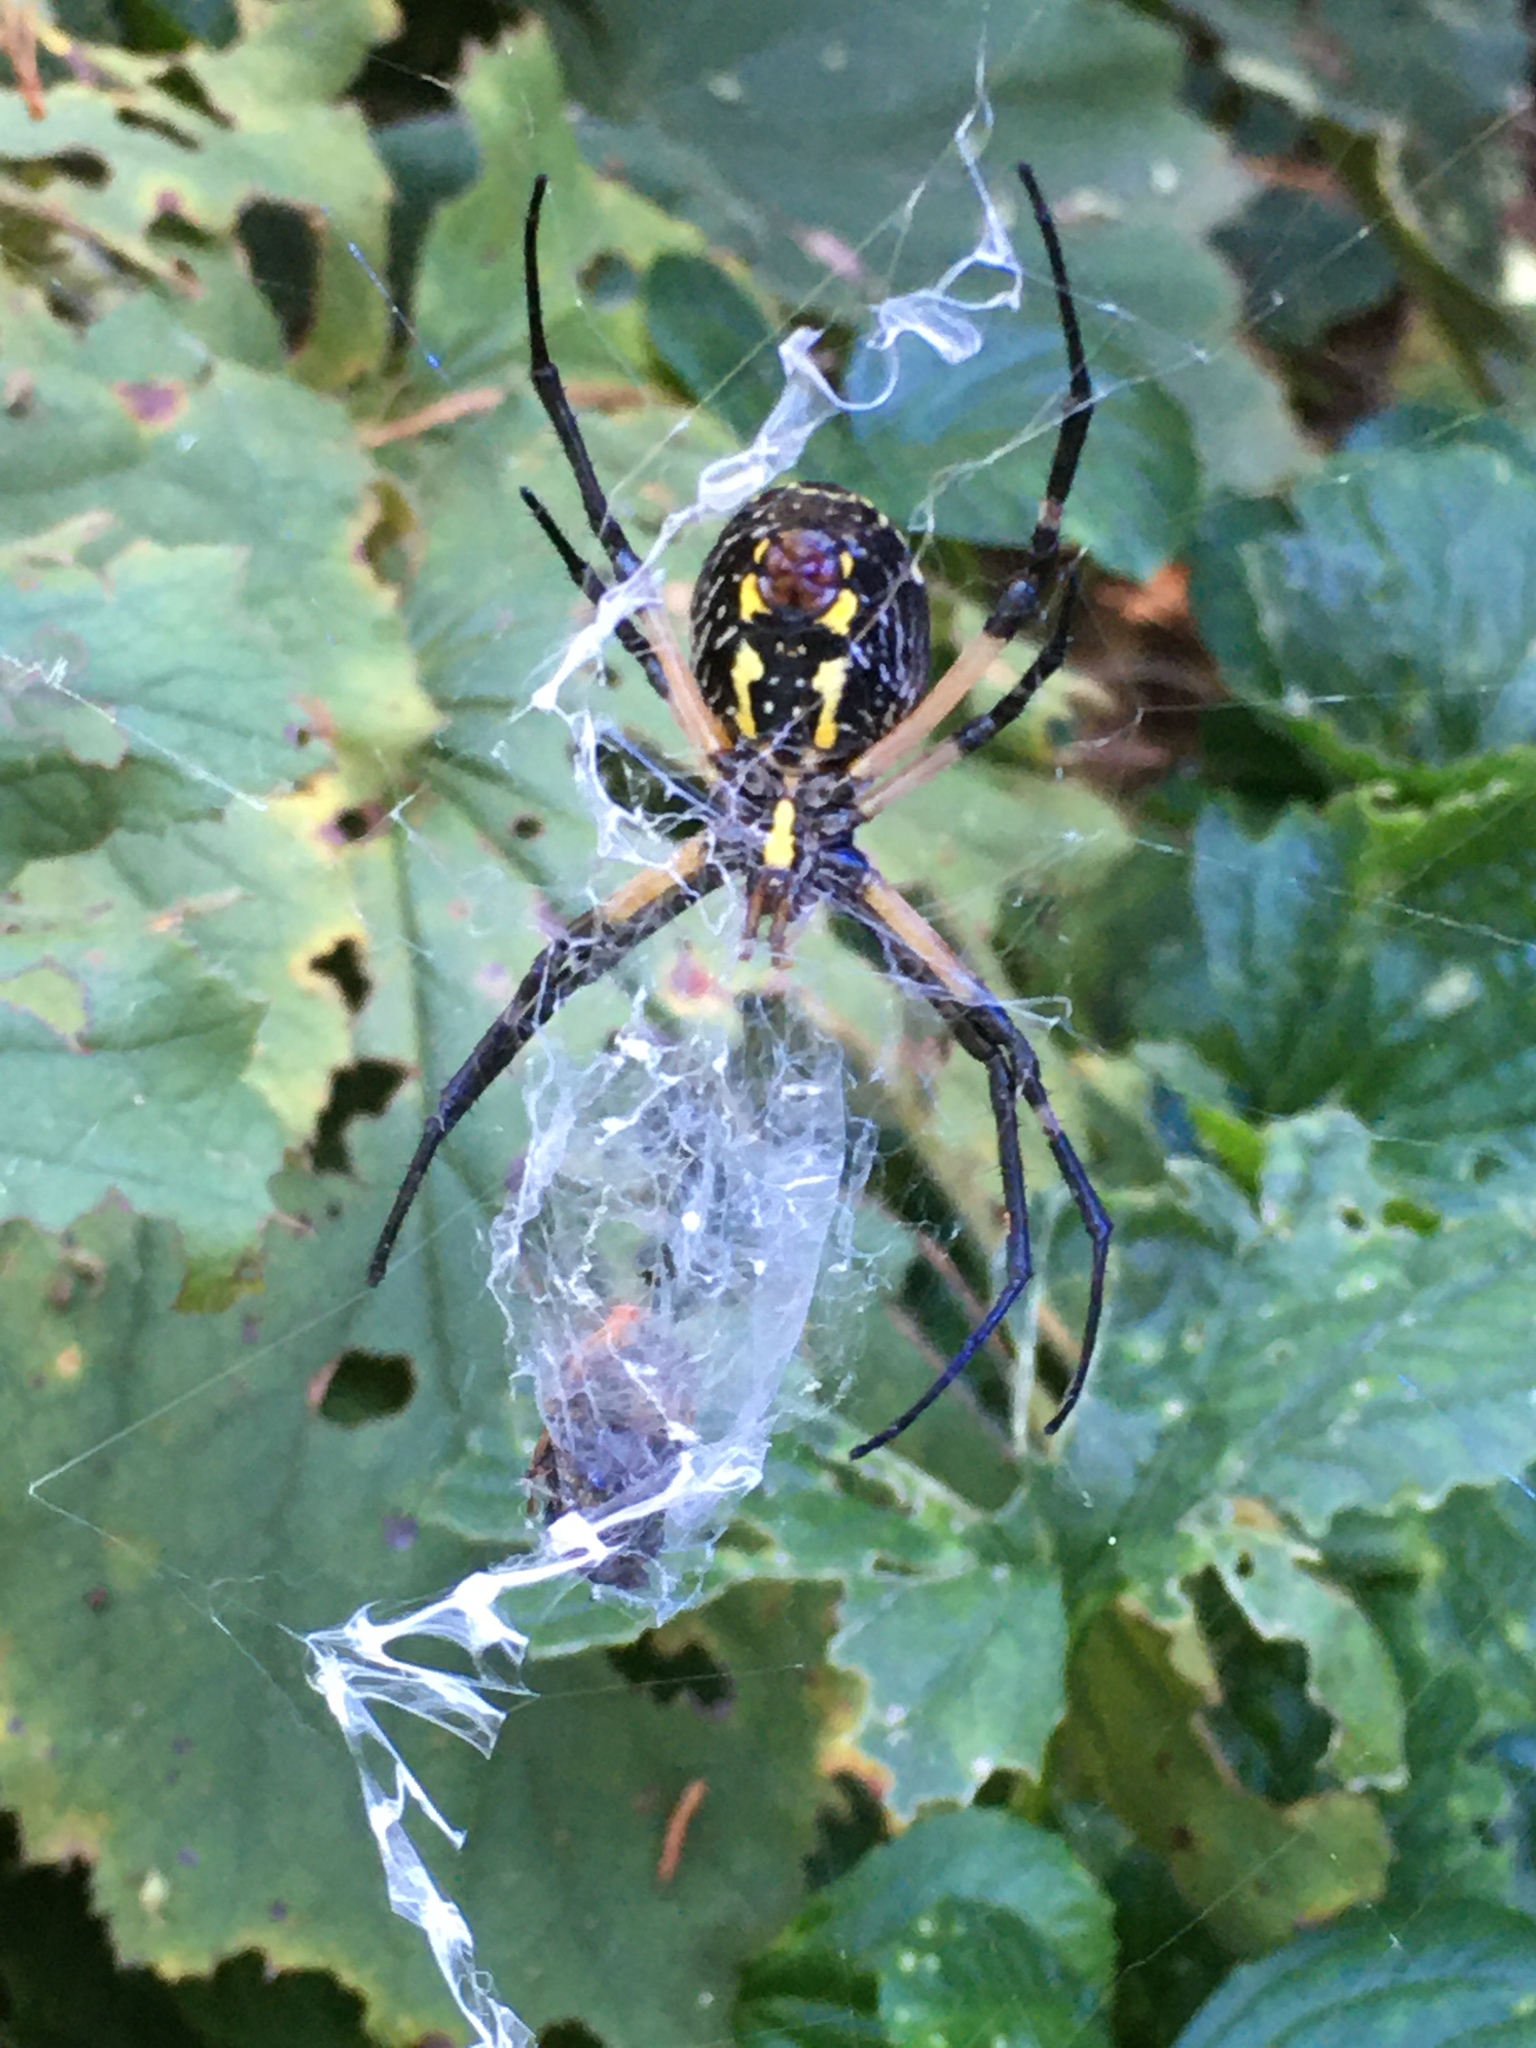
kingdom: Animalia
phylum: Arthropoda
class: Arachnida
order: Araneae
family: Araneidae
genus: Argiope
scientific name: Argiope aurantia
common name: Orb weavers
